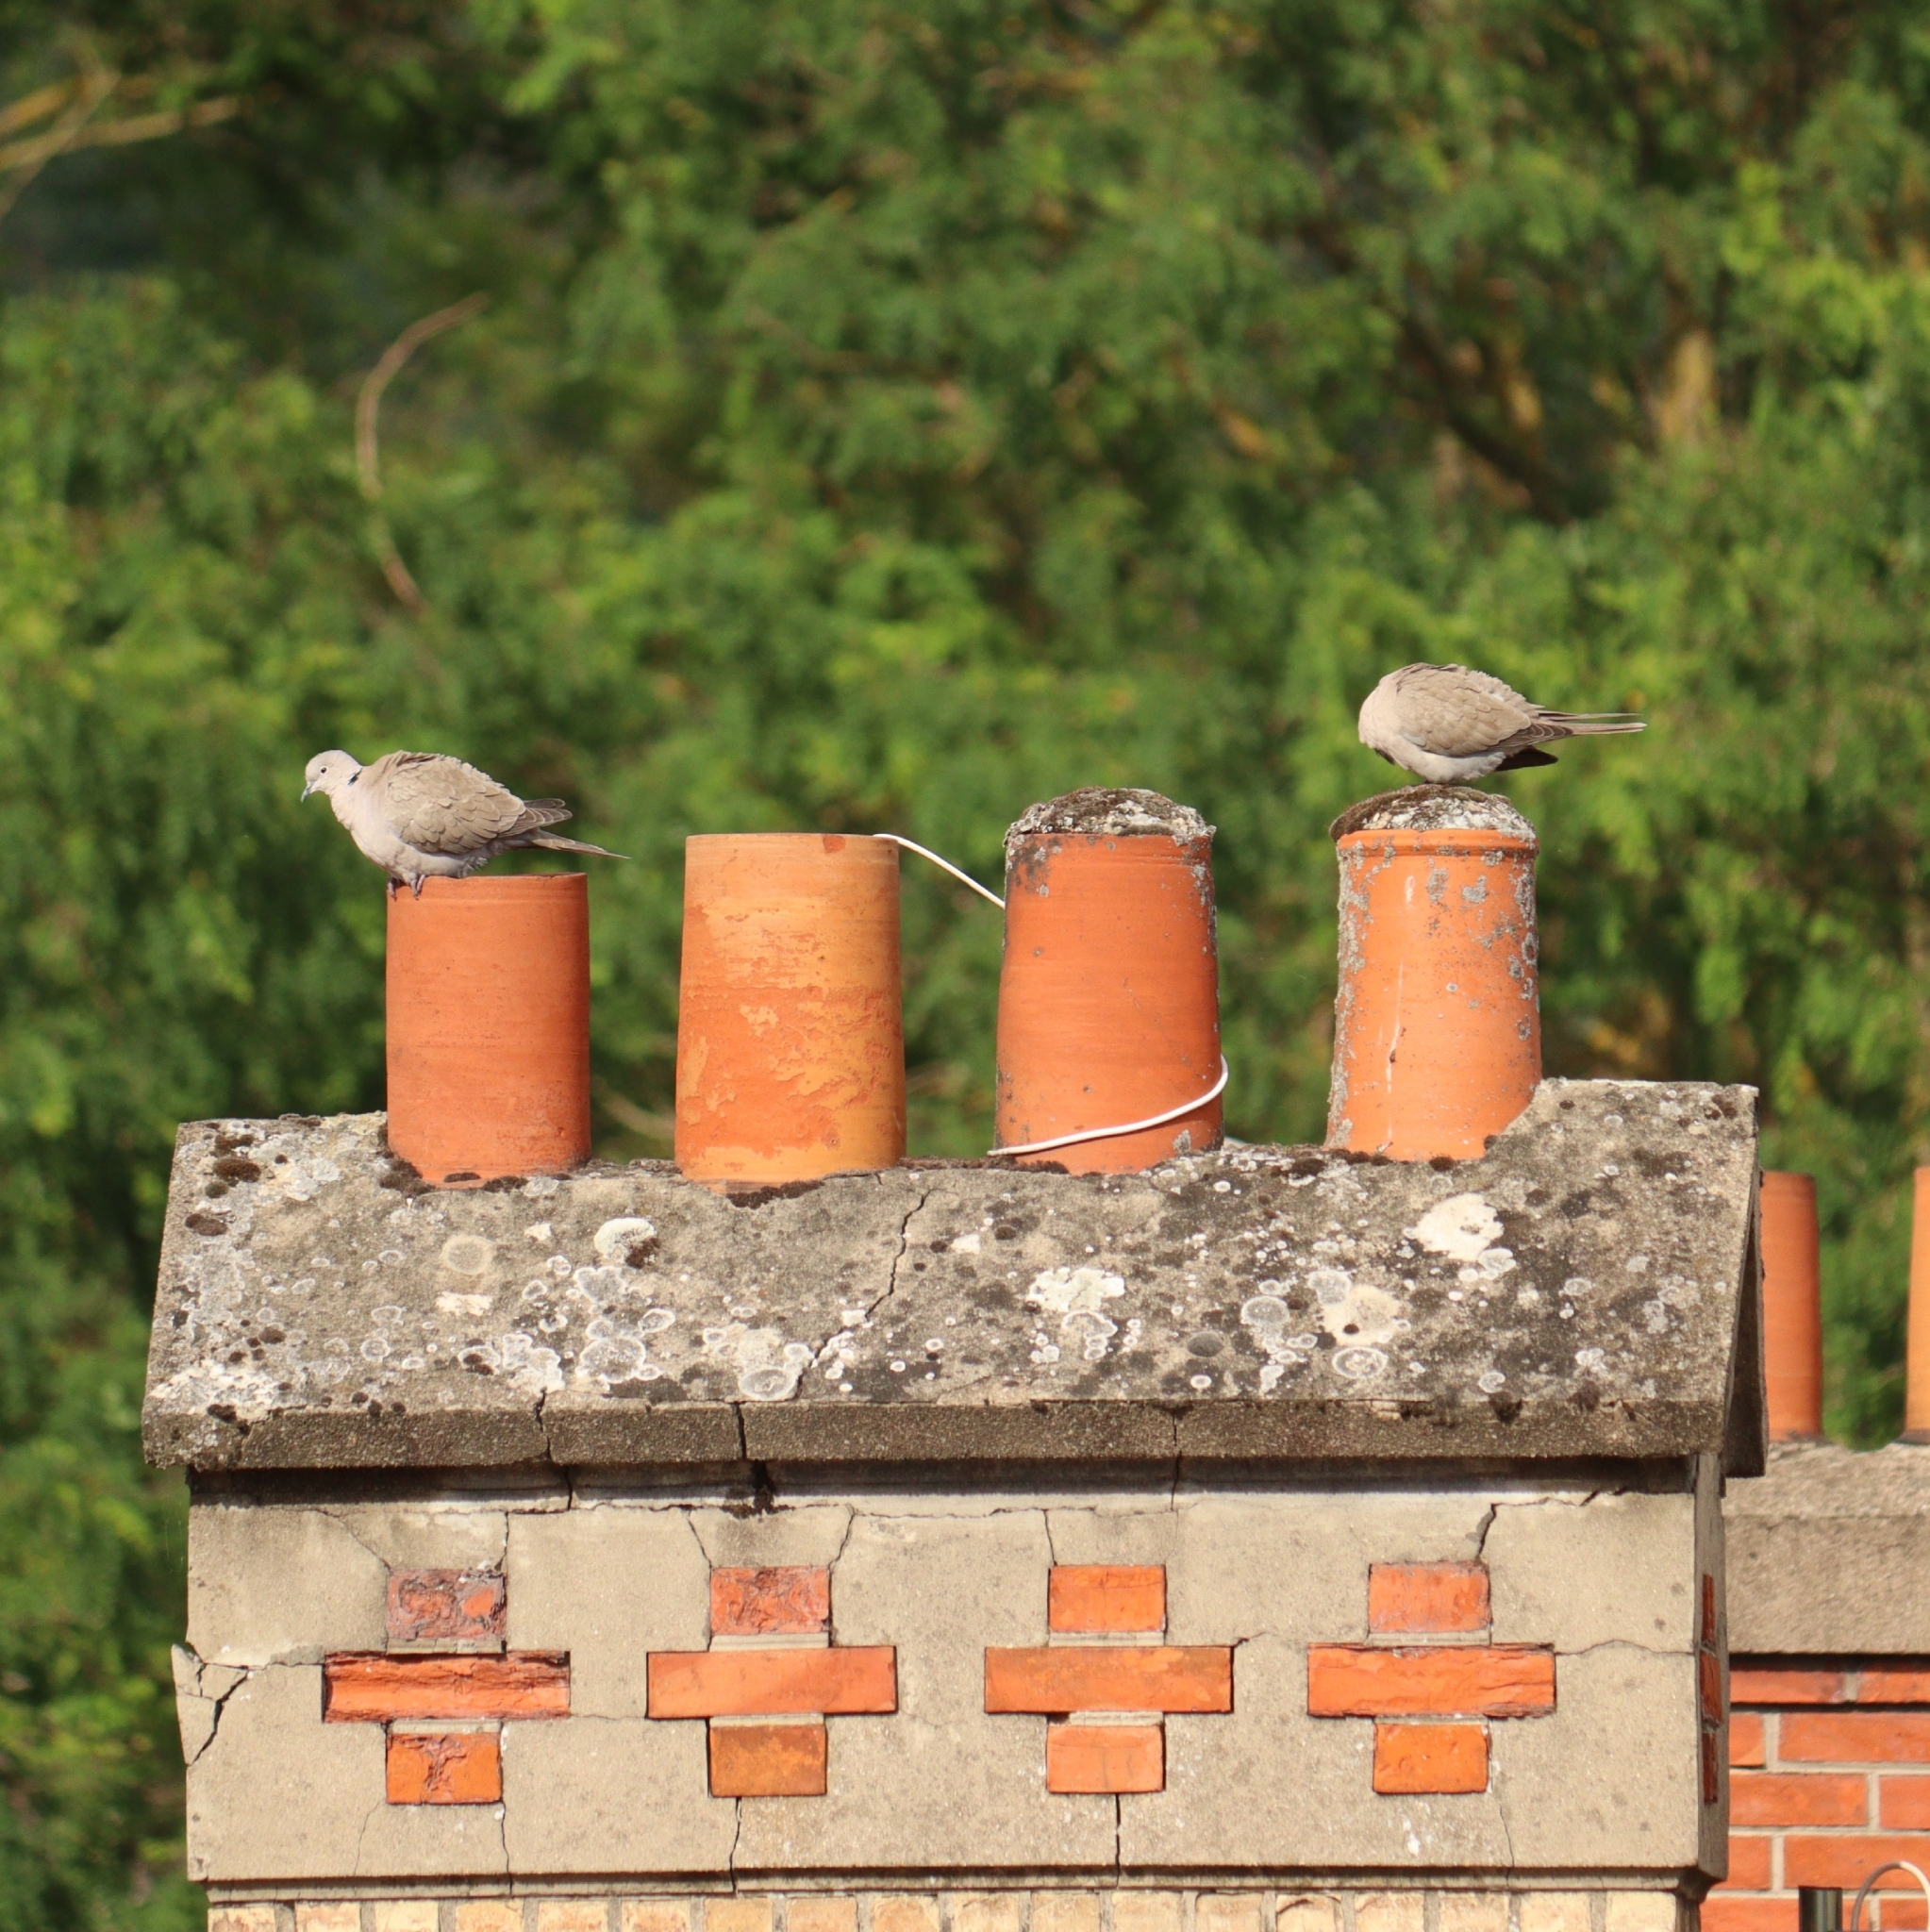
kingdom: Animalia
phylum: Chordata
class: Aves
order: Columbiformes
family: Columbidae
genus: Streptopelia
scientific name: Streptopelia decaocto
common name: Eurasian collared dove
